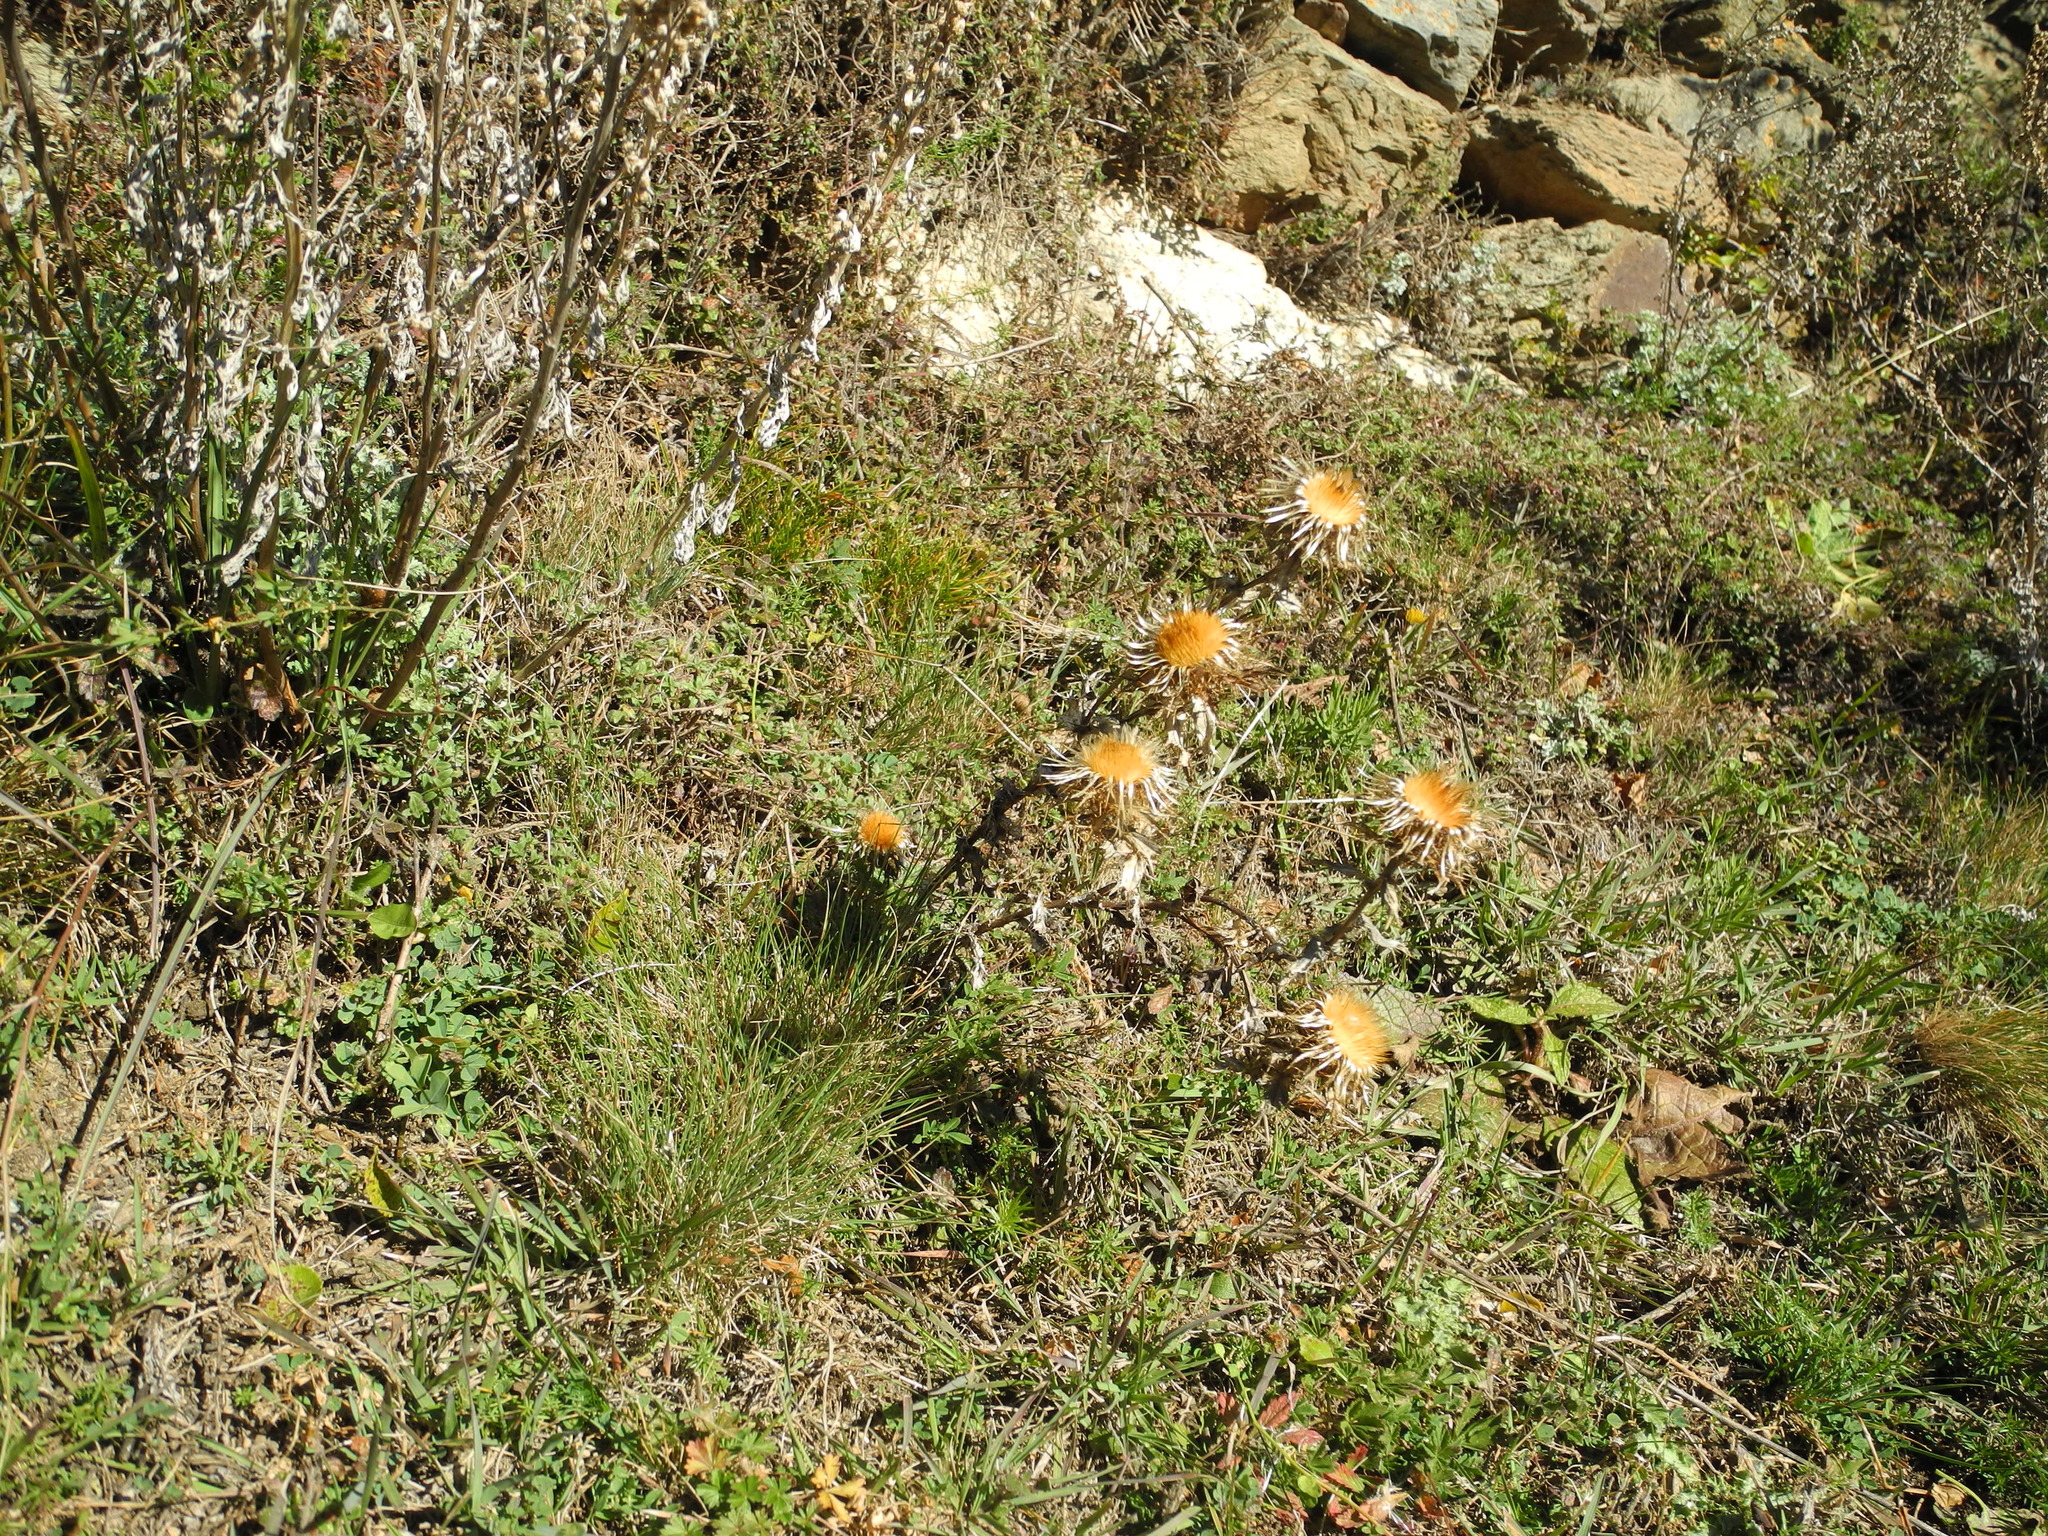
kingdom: Plantae
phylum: Tracheophyta
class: Magnoliopsida
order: Asterales
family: Asteraceae
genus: Carlina
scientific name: Carlina vulgaris
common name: Carline thistle
